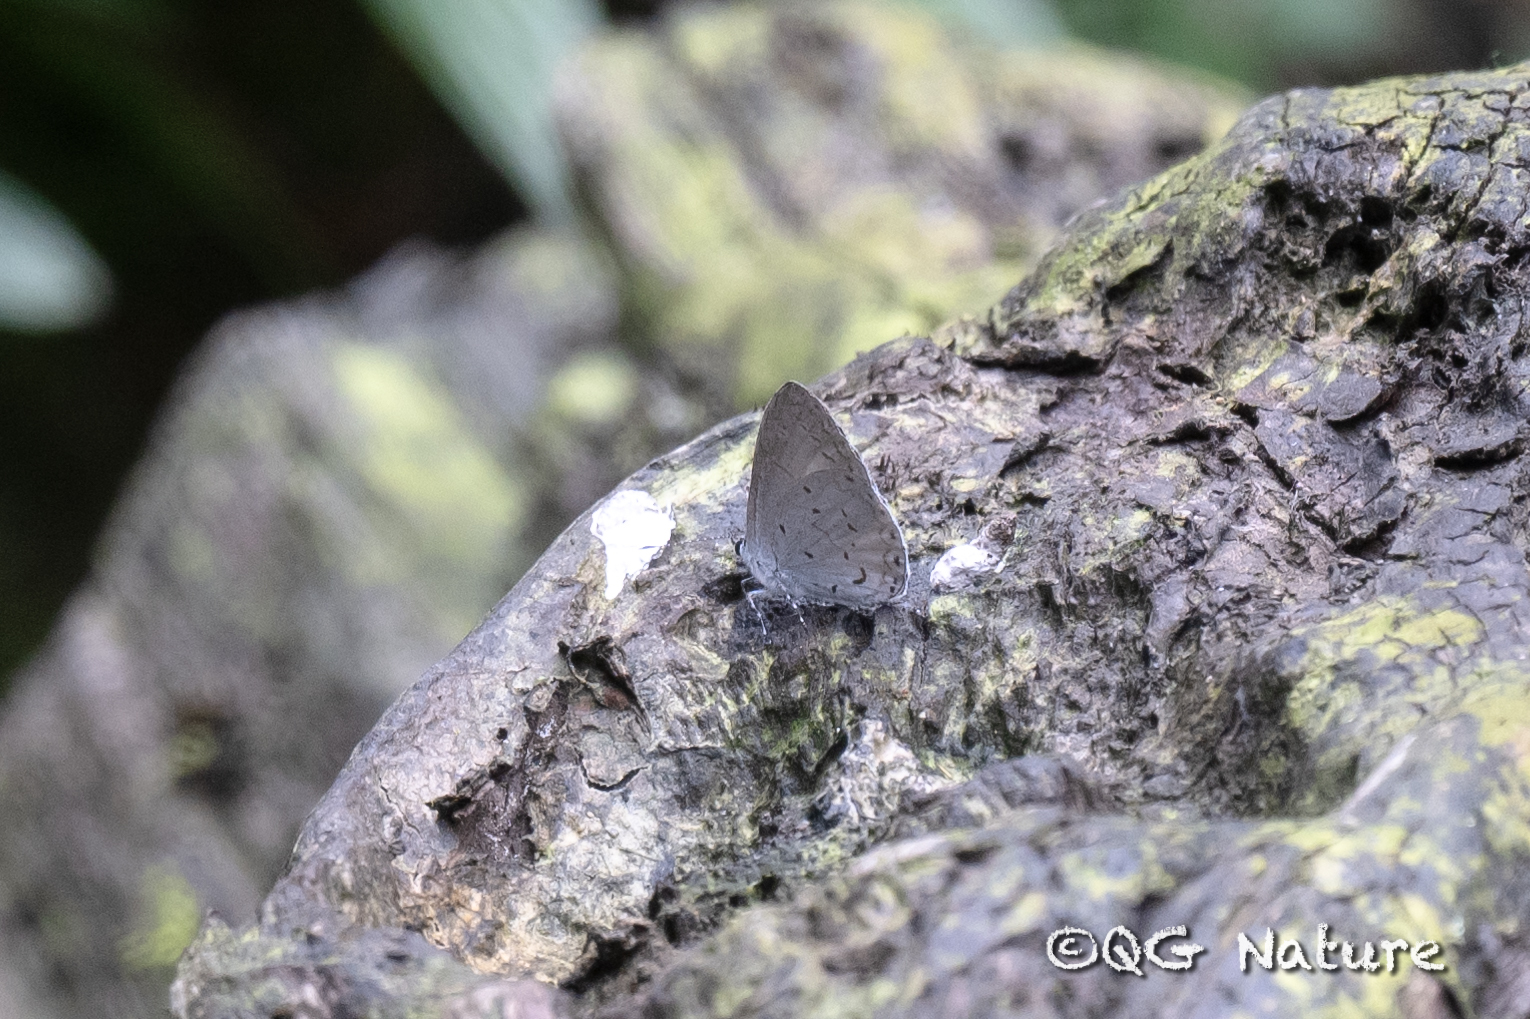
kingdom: Animalia
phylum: Arthropoda
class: Insecta
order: Lepidoptera
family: Lycaenidae
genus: Udara
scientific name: Udara dilectus
